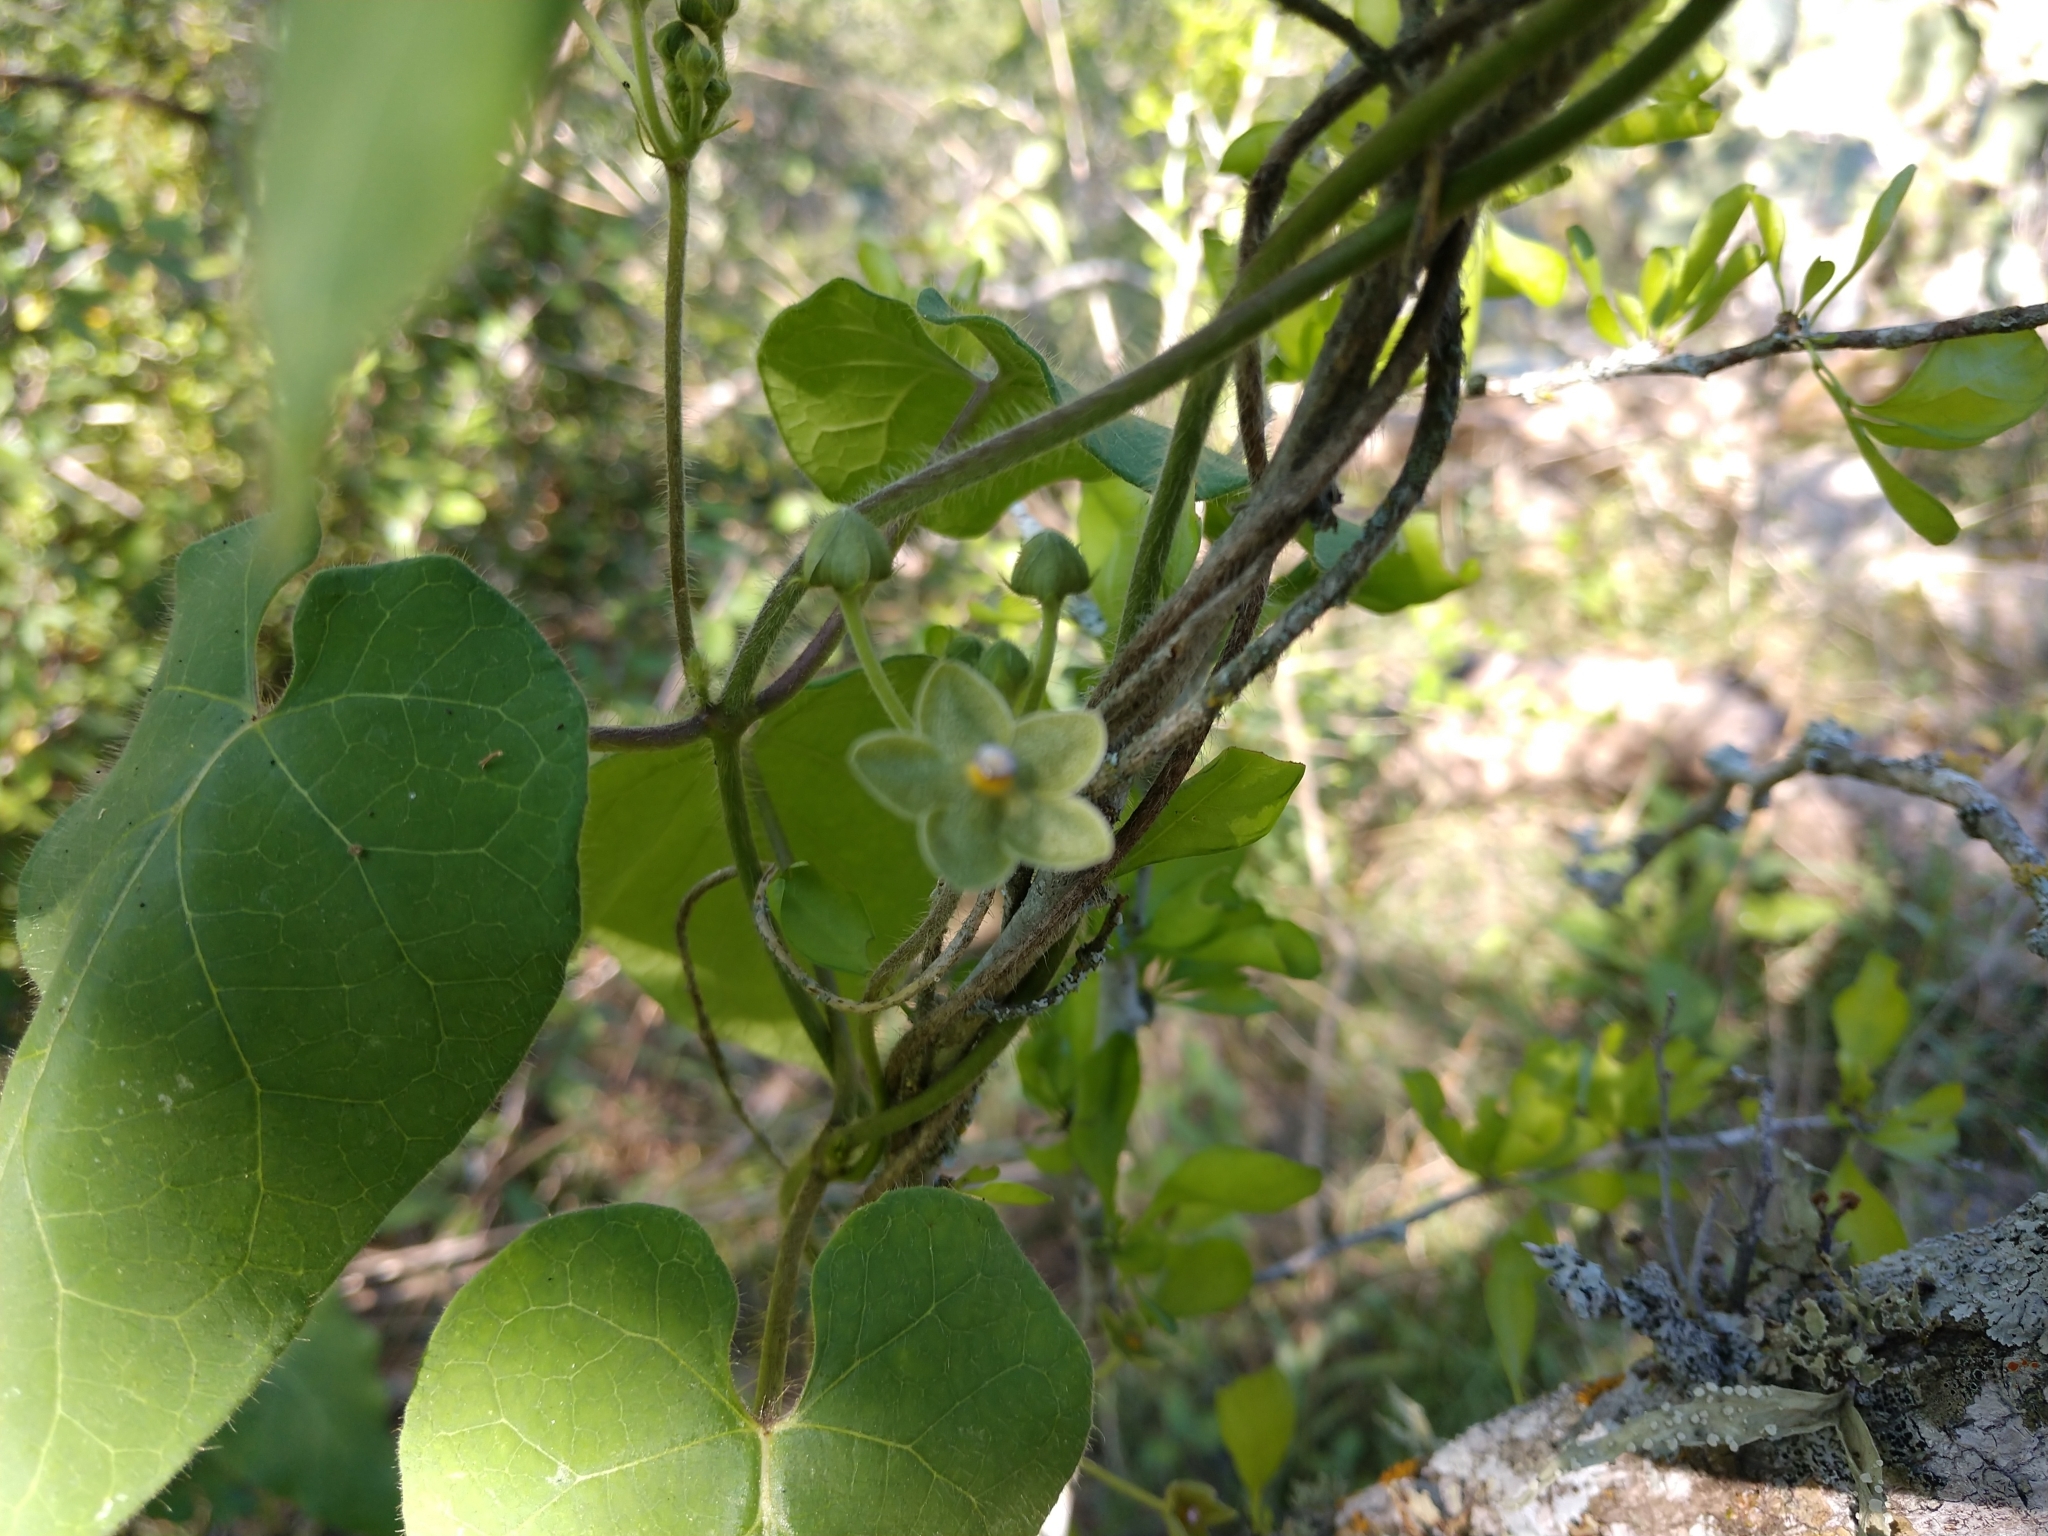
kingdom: Plantae
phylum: Tracheophyta
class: Magnoliopsida
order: Gentianales
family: Apocynaceae
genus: Dictyanthus
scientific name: Dictyanthus reticulatus
